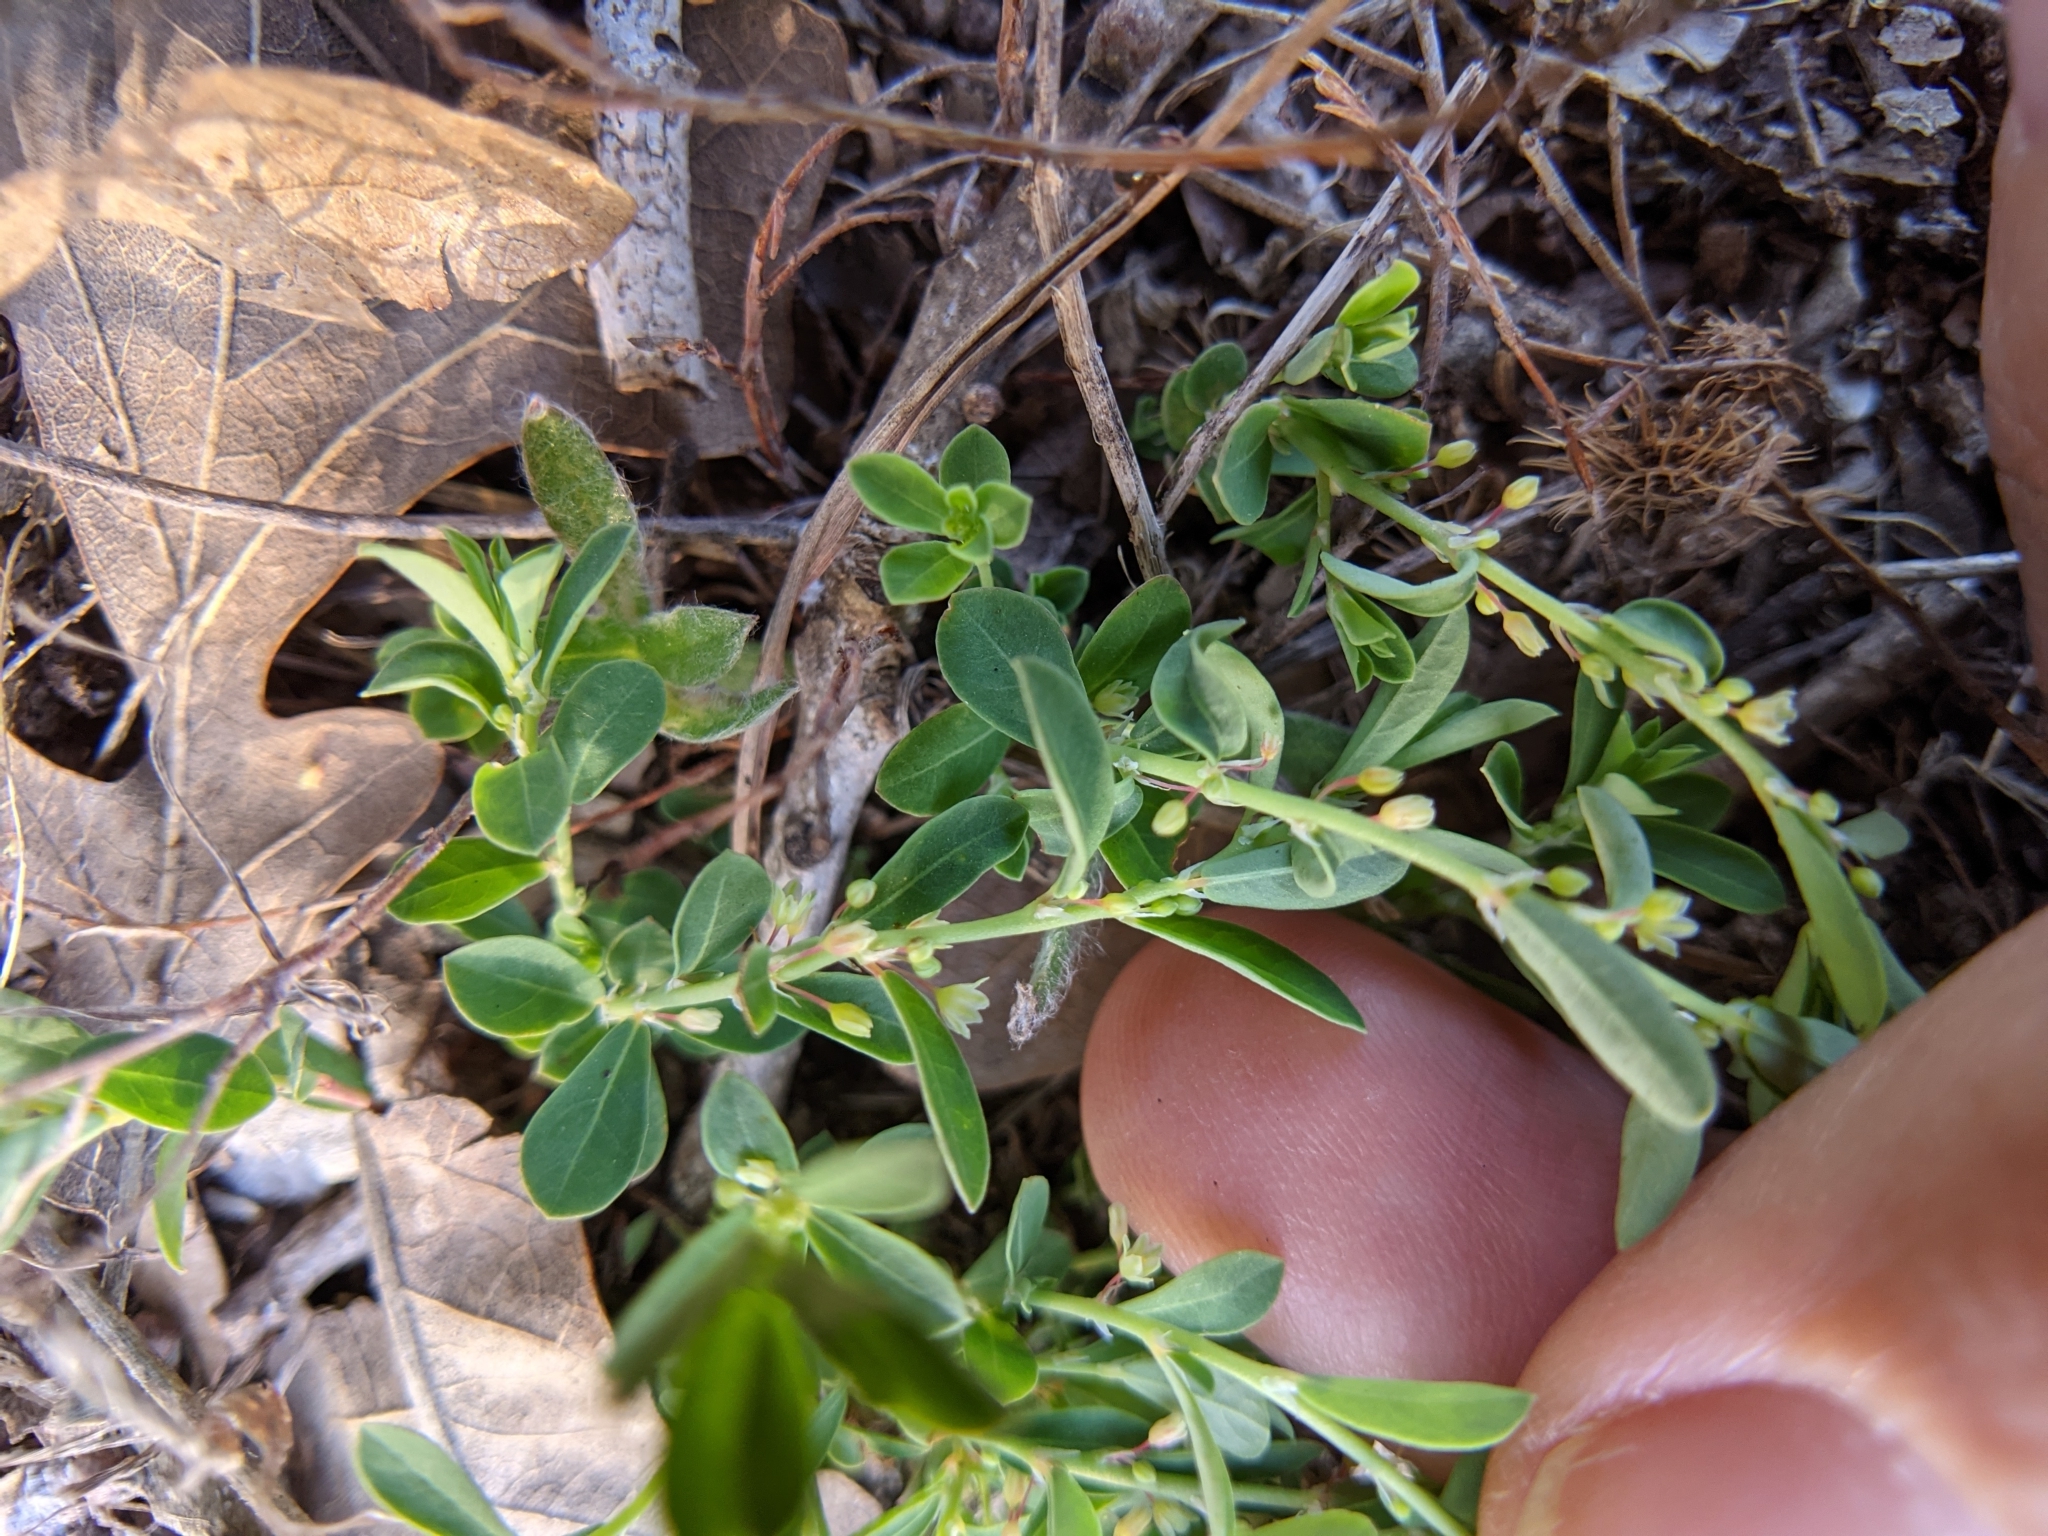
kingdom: Plantae
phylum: Tracheophyta
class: Magnoliopsida
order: Malpighiales
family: Phyllanthaceae
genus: Phyllanthus
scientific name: Phyllanthus polygonoides
